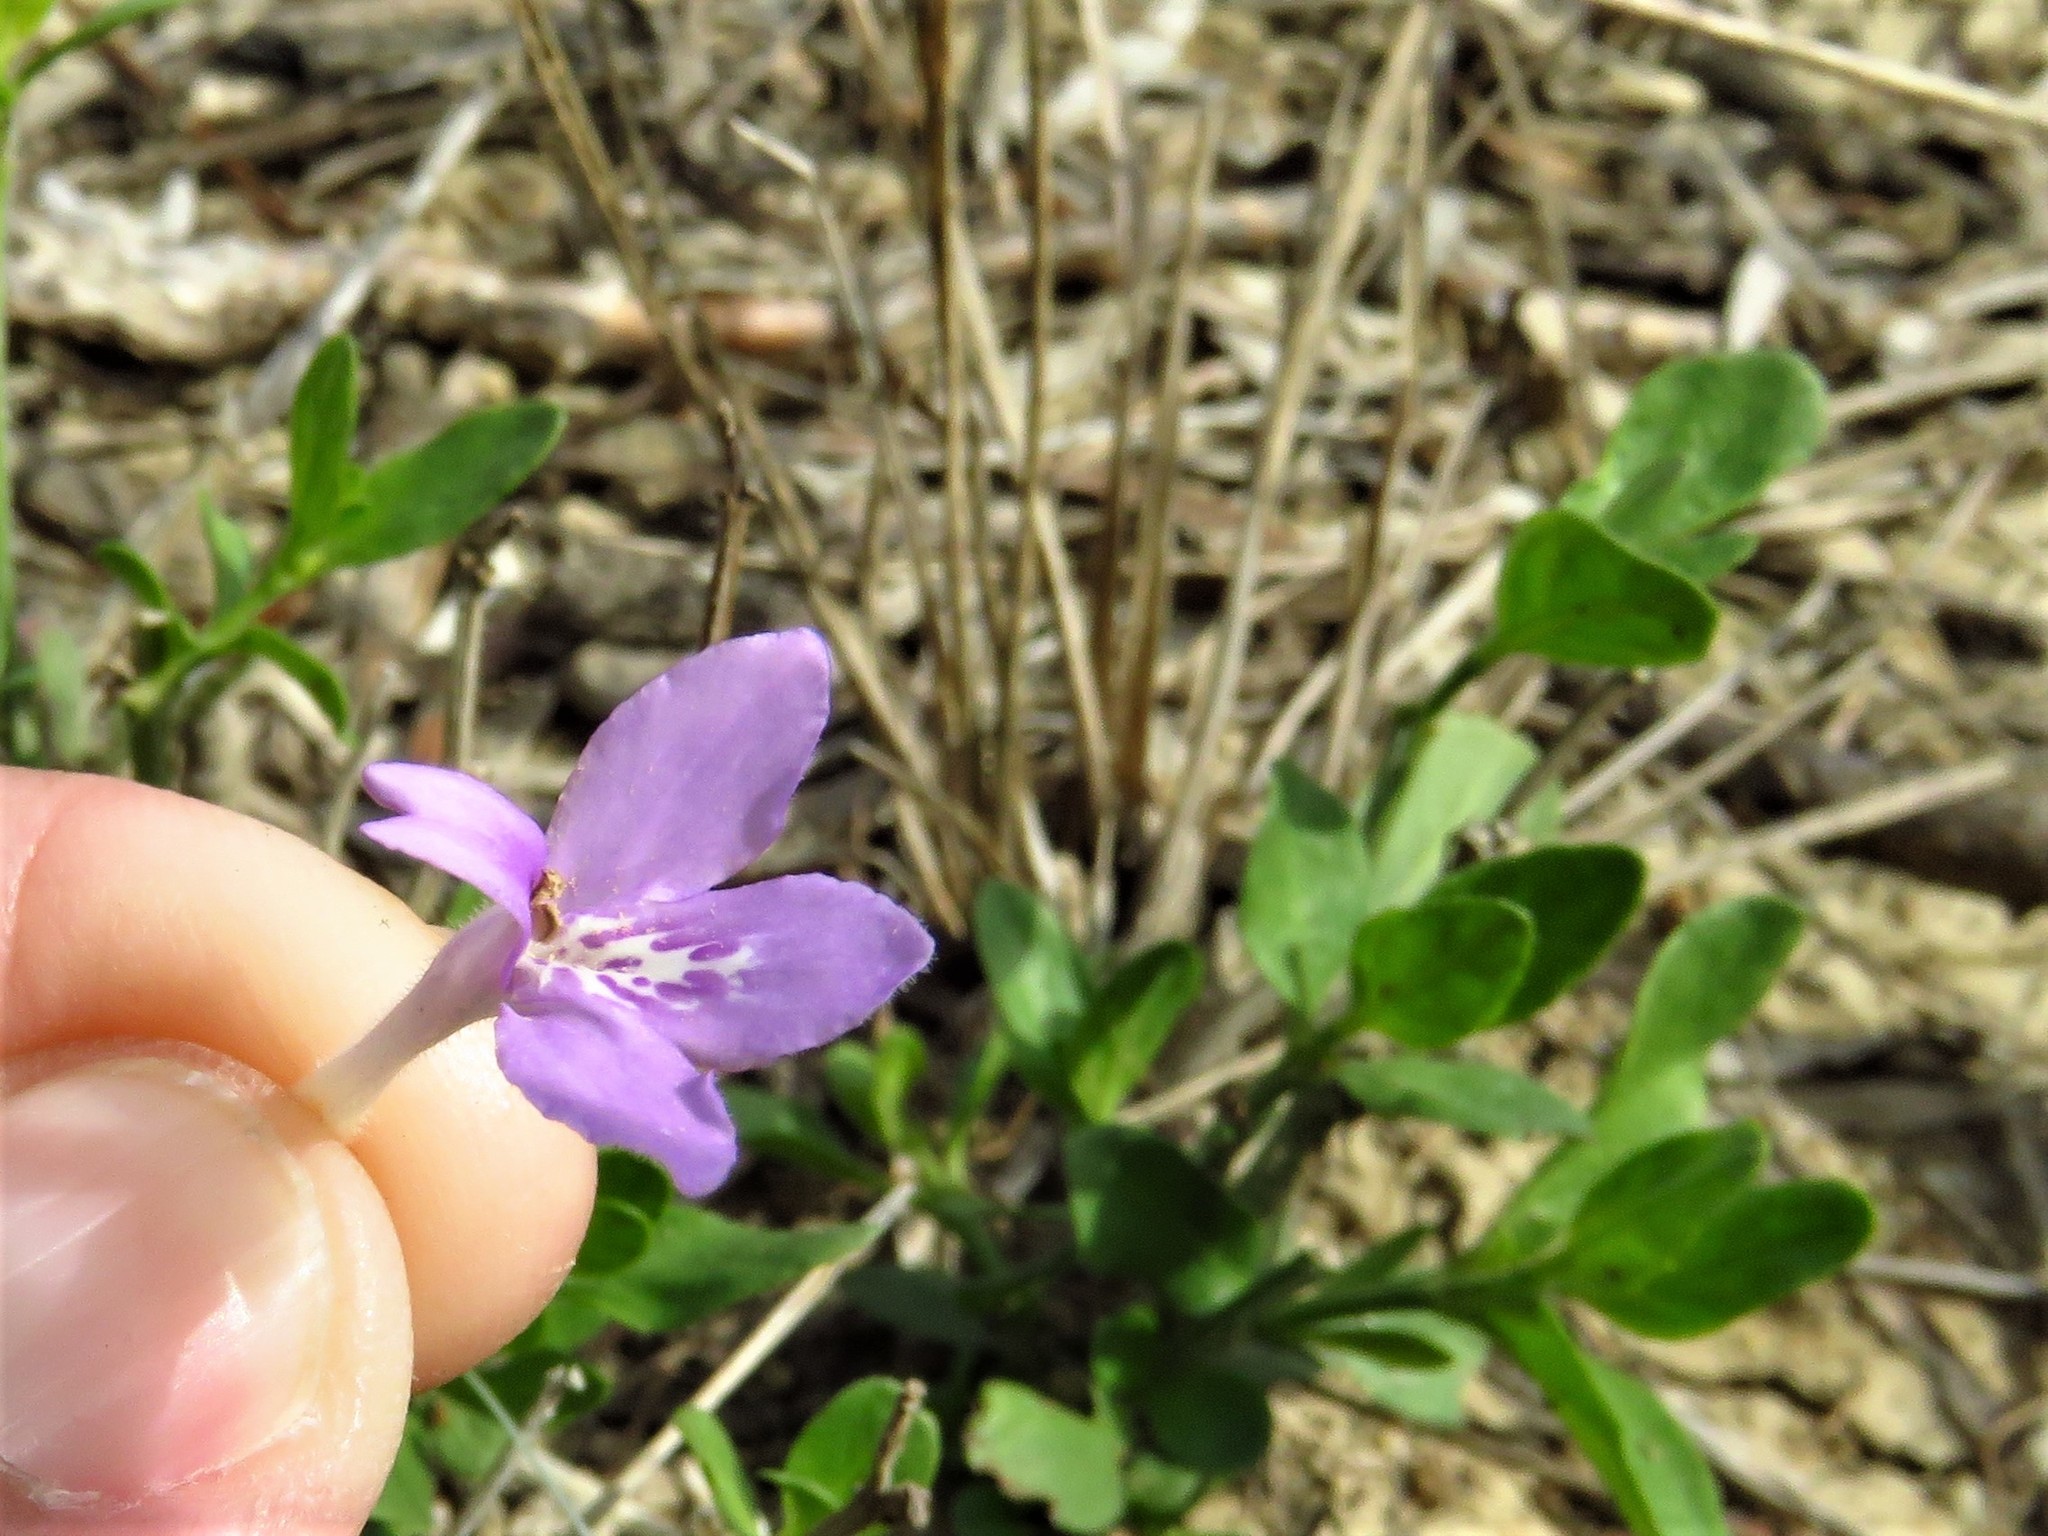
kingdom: Plantae
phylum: Tracheophyta
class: Magnoliopsida
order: Lamiales
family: Acanthaceae
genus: Justicia
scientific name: Justicia pilosella
